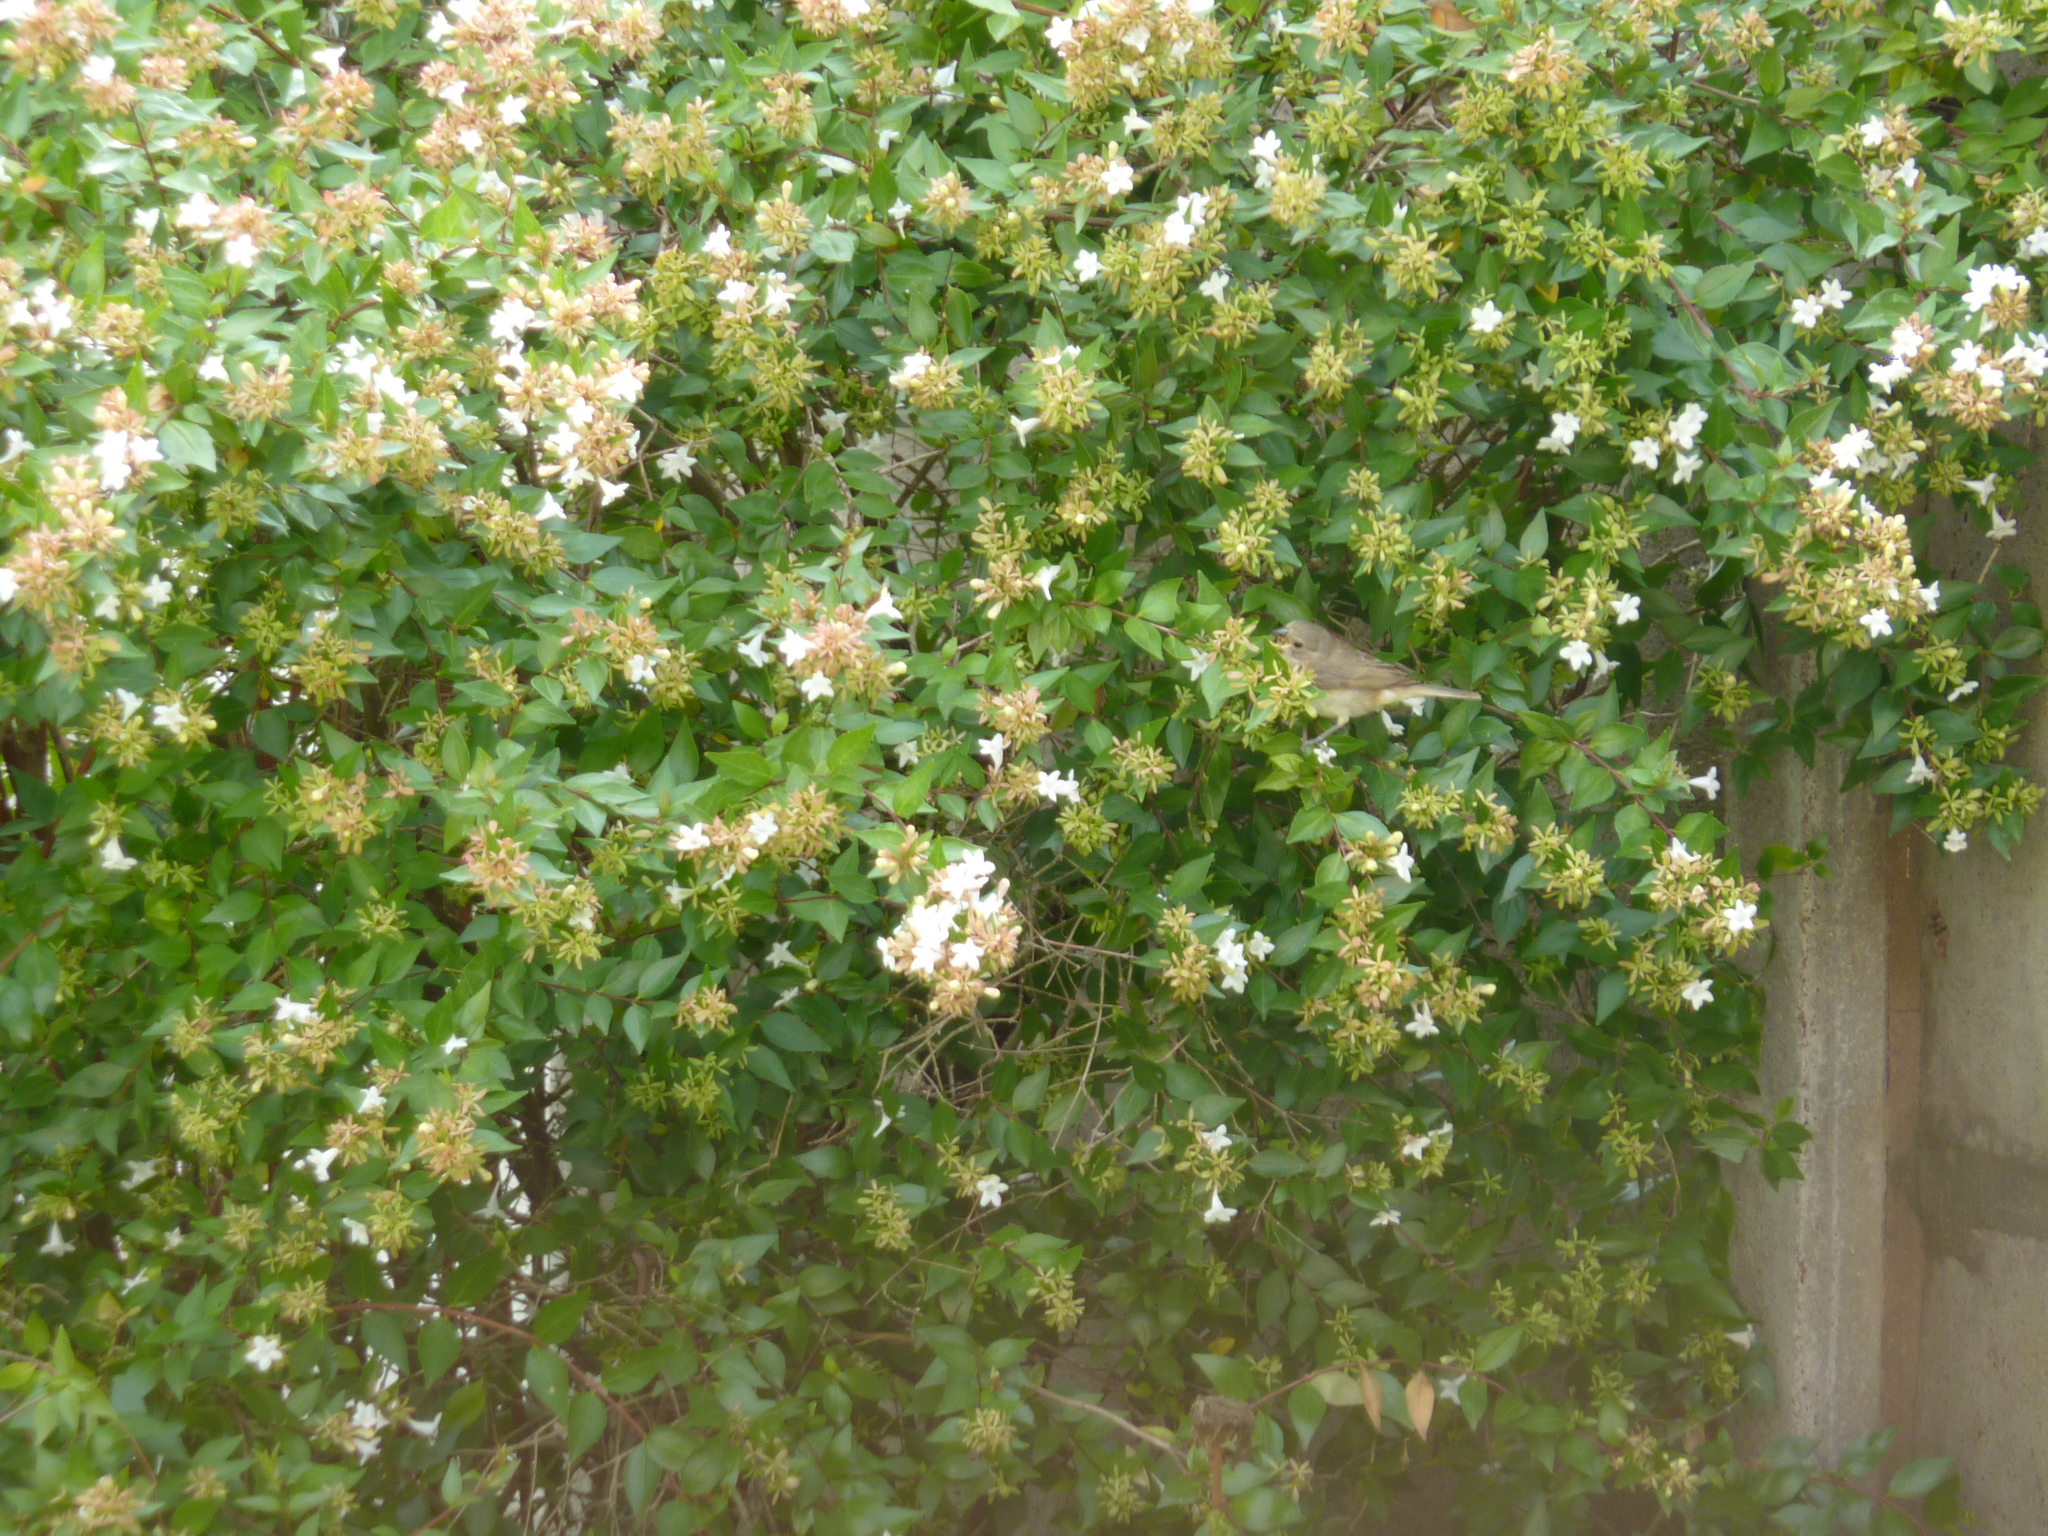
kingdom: Animalia
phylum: Chordata
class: Aves
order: Passeriformes
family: Thraupidae
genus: Sporophila
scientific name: Sporophila caerulescens
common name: Double-collared seedeater
